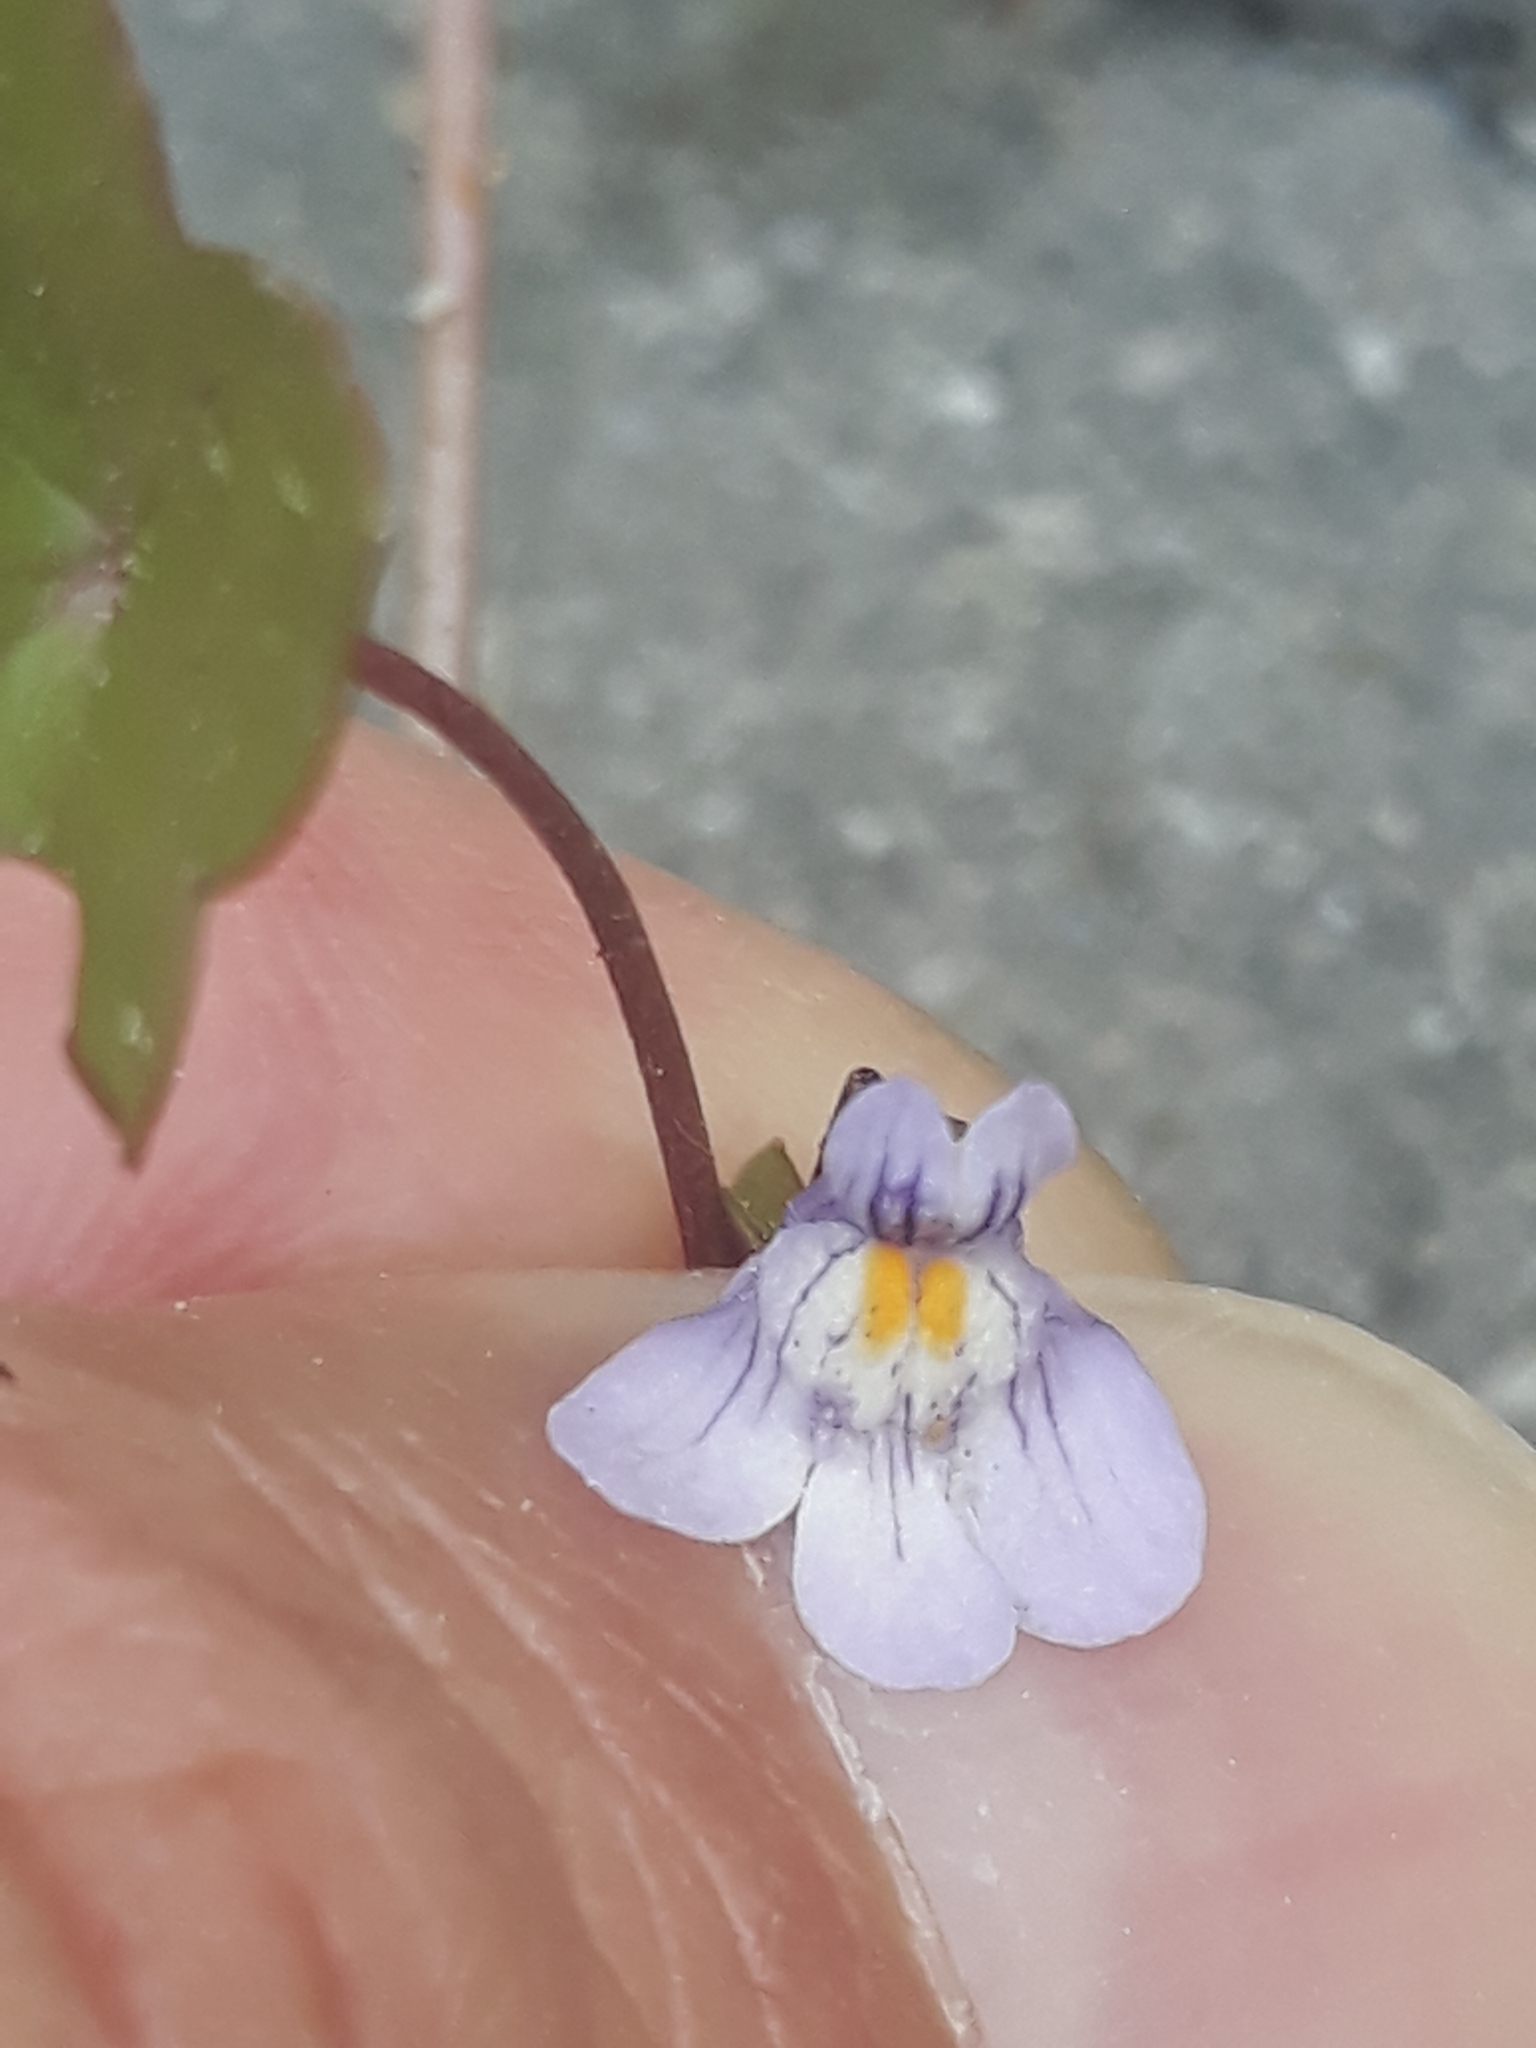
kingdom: Plantae
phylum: Tracheophyta
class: Magnoliopsida
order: Lamiales
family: Plantaginaceae
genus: Cymbalaria
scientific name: Cymbalaria muralis
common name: Ivy-leaved toadflax
